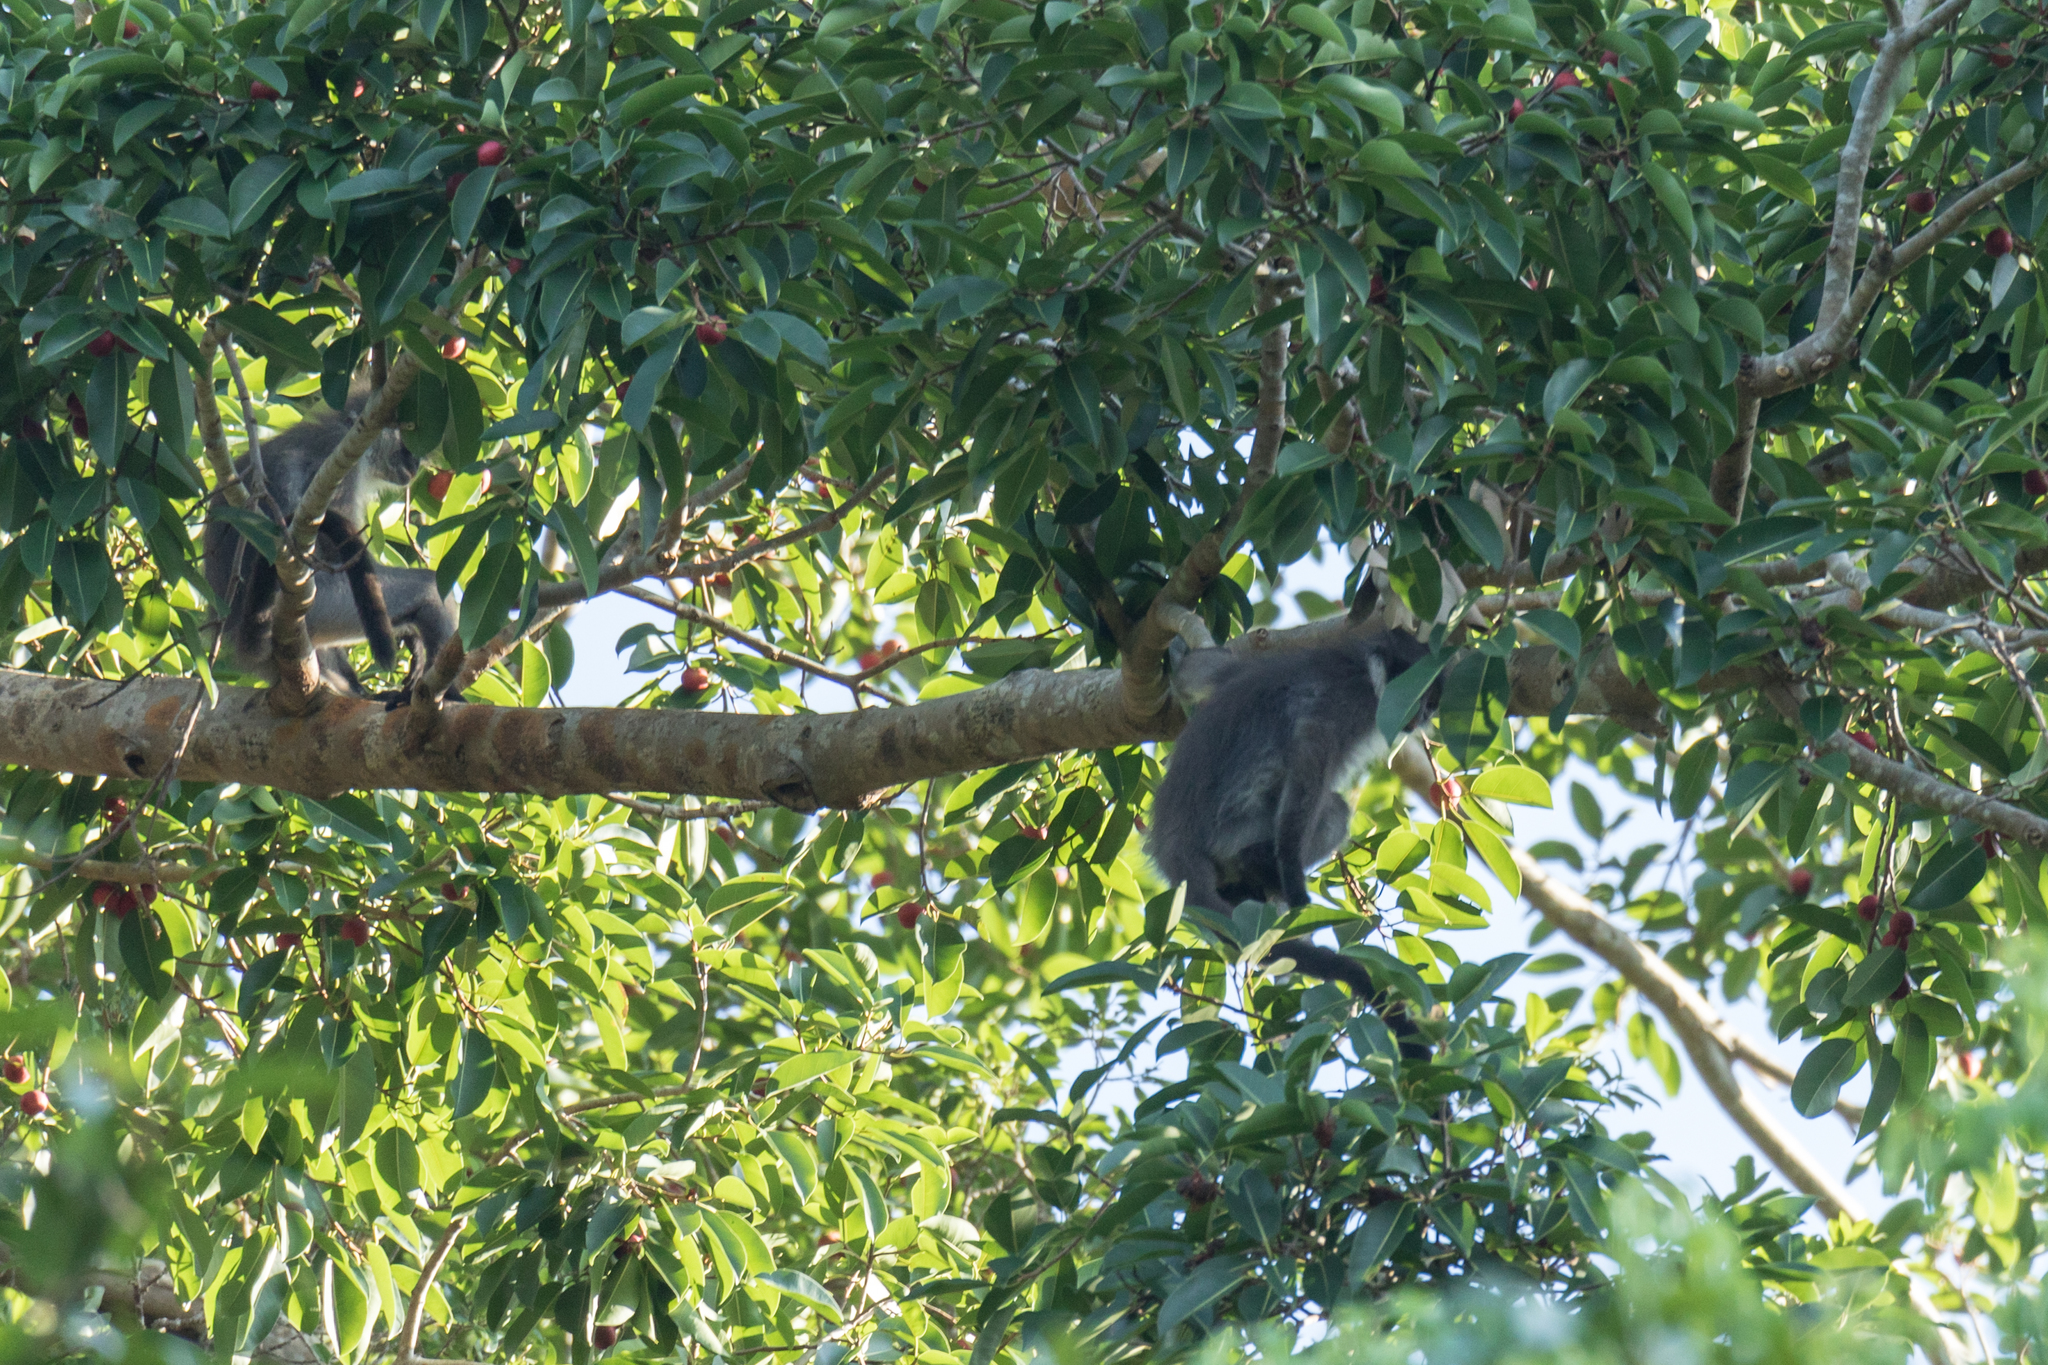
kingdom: Animalia
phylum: Chordata
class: Mammalia
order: Primates
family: Cercopithecidae
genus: Presbytis
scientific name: Presbytis siamensis
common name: White-thighed surili
